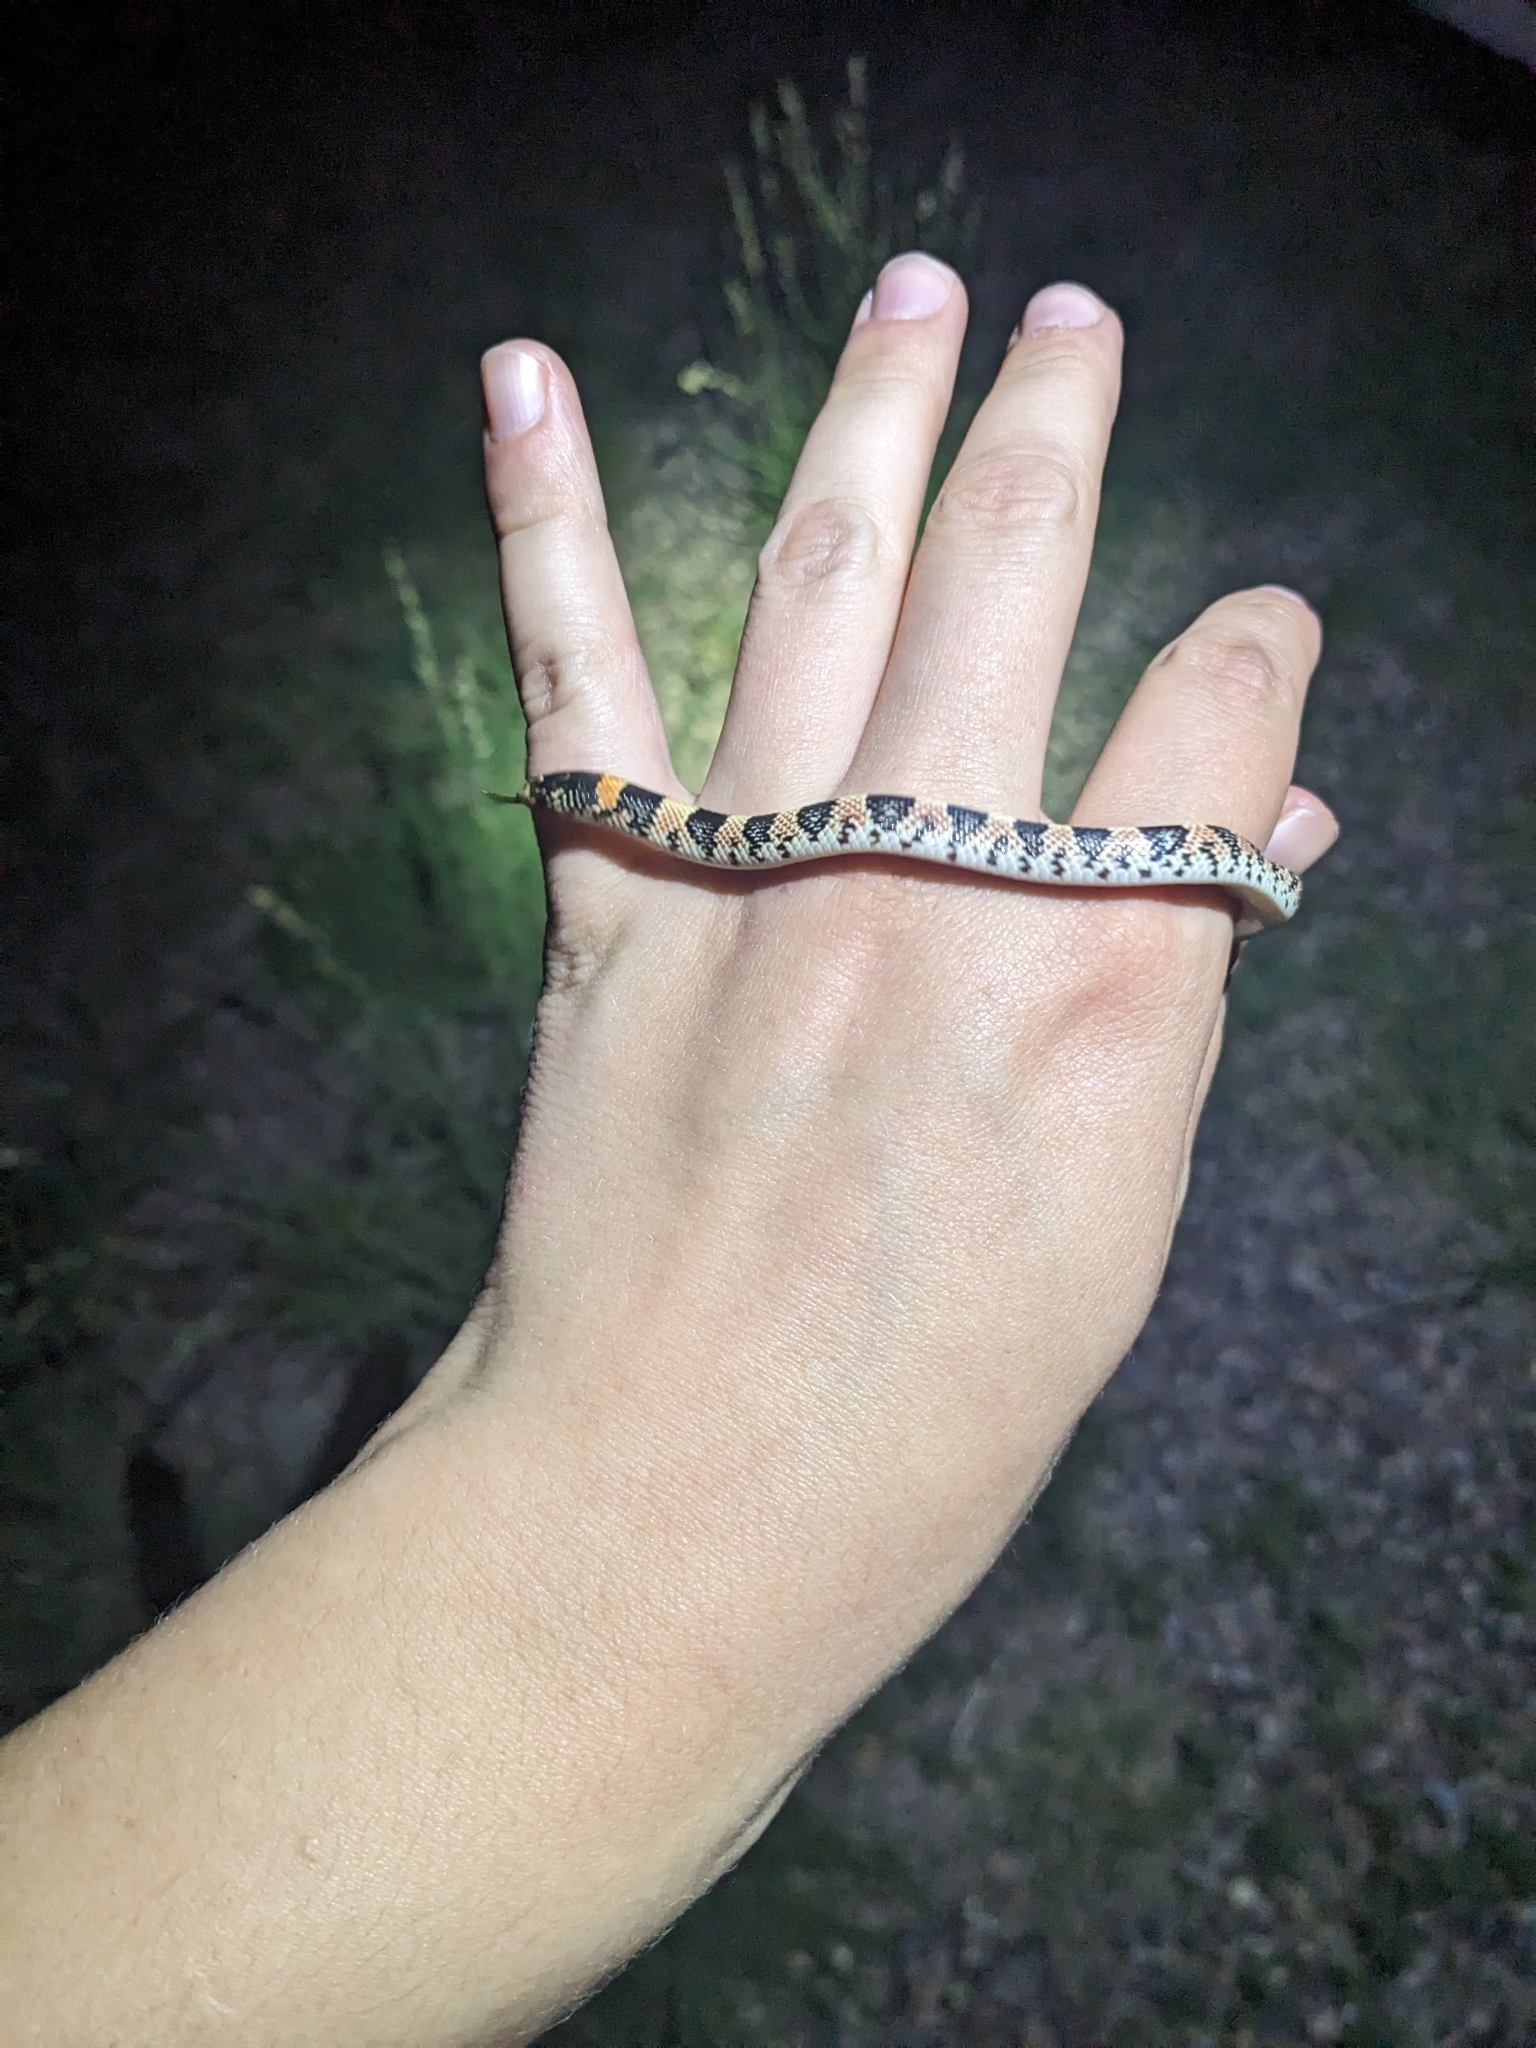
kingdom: Animalia
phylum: Chordata
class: Squamata
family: Colubridae
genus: Rhinocheilus
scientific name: Rhinocheilus lecontei
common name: Longnose snake
